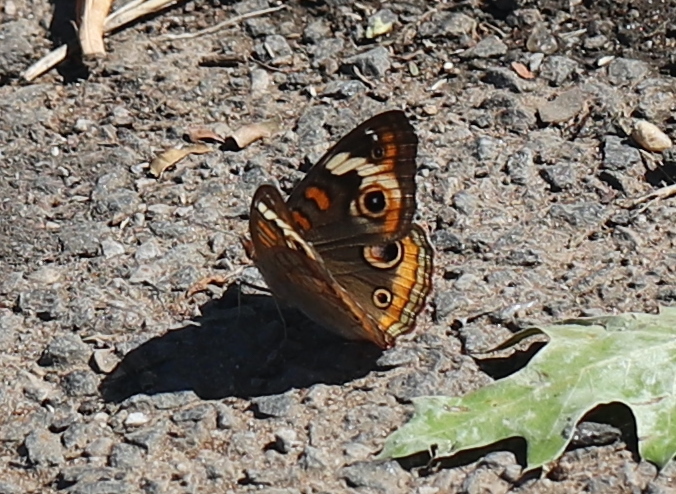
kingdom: Animalia
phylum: Arthropoda
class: Insecta
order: Lepidoptera
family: Nymphalidae
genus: Junonia
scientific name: Junonia coenia
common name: Common buckeye
